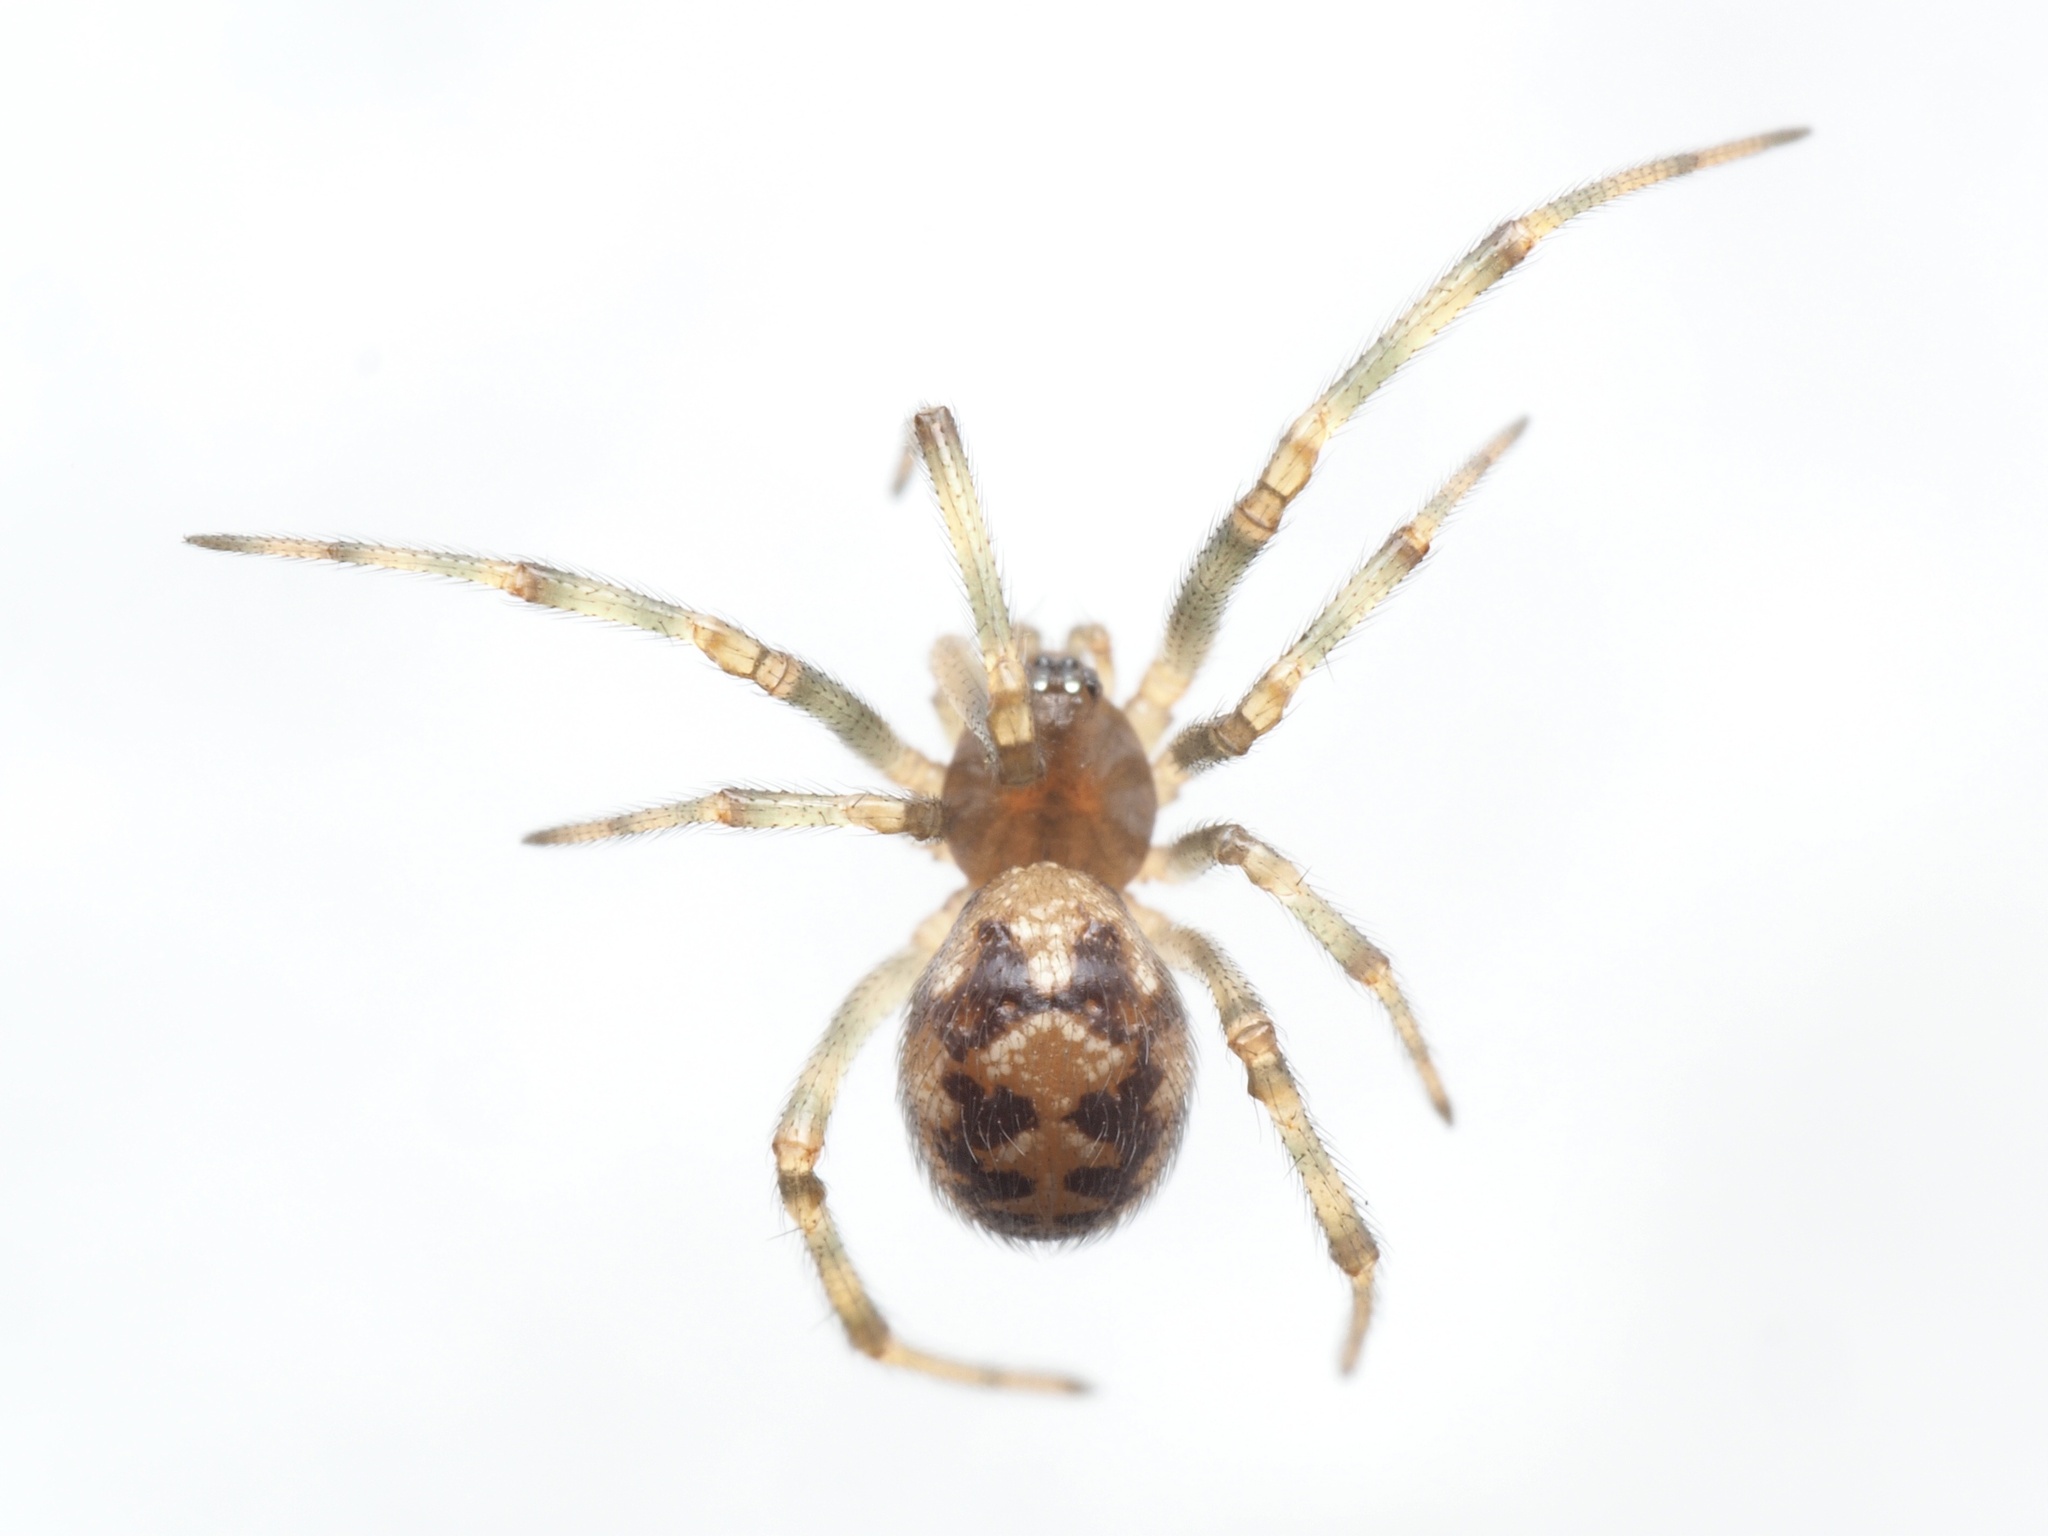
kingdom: Animalia
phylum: Arthropoda
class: Arachnida
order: Araneae
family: Theridiidae
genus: Steatoda
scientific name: Steatoda triangulosa
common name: Triangulate bud spider
